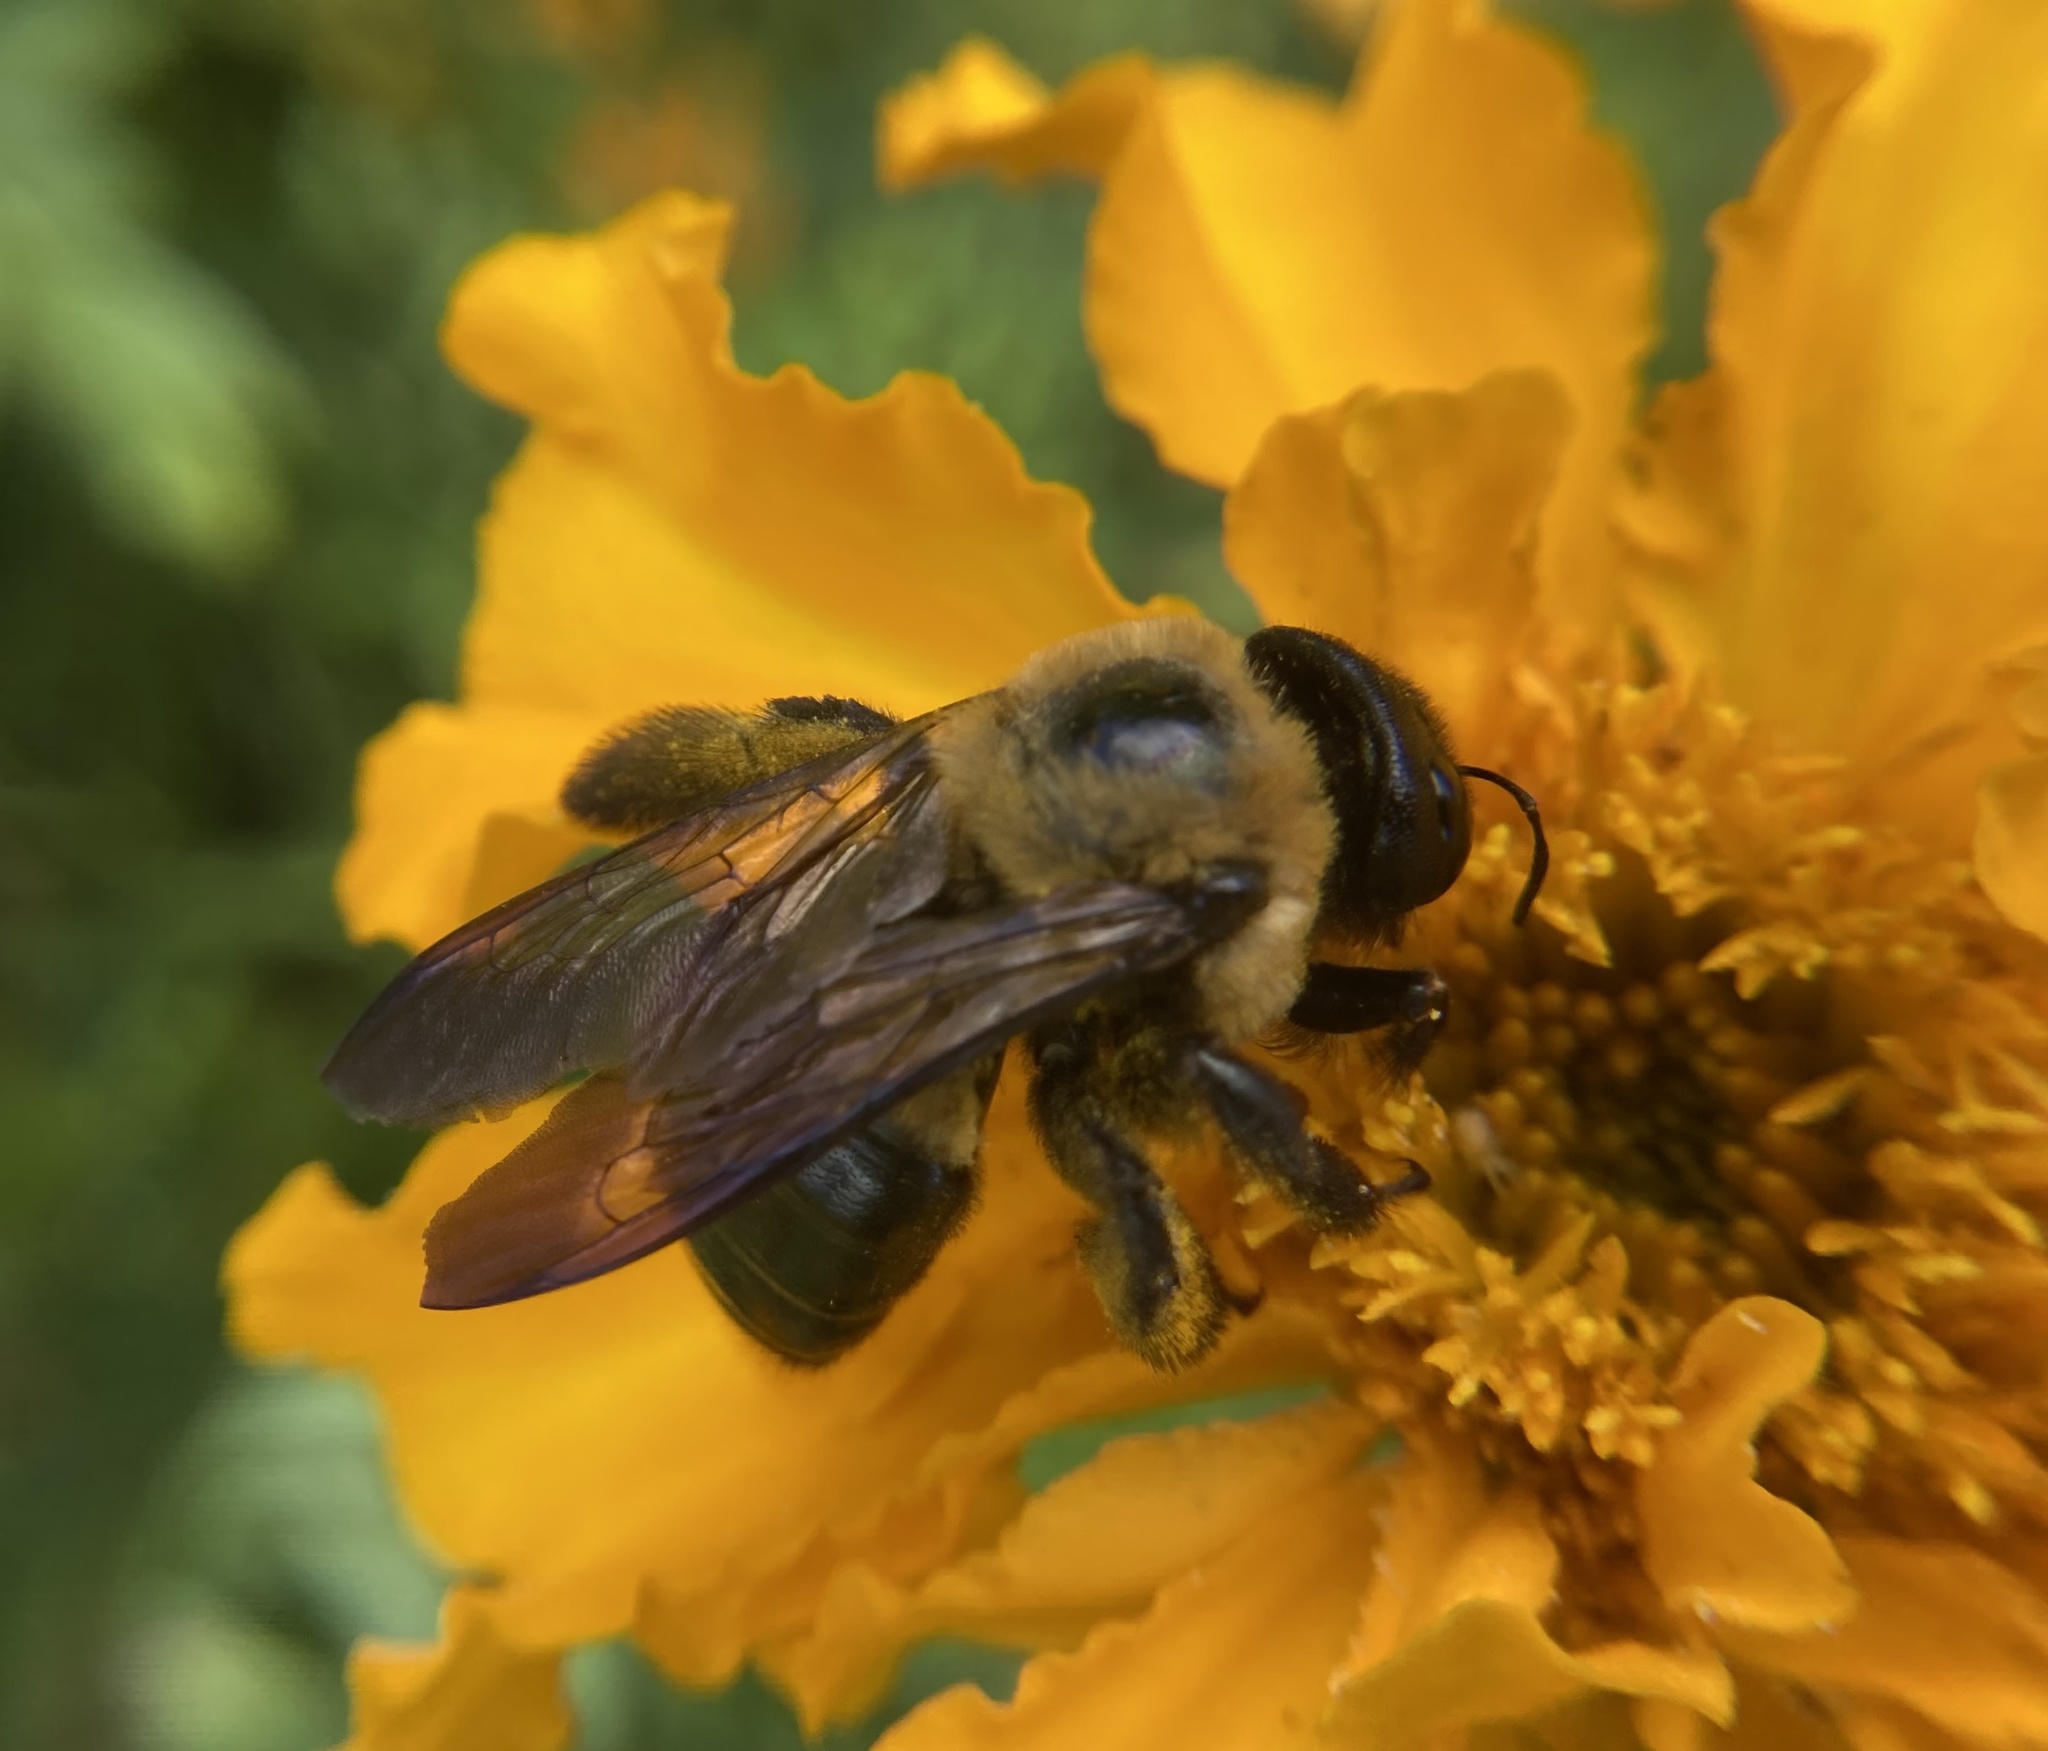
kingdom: Animalia
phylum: Arthropoda
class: Insecta
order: Hymenoptera
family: Apidae
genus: Xylocopa
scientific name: Xylocopa virginica
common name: Carpenter bee
